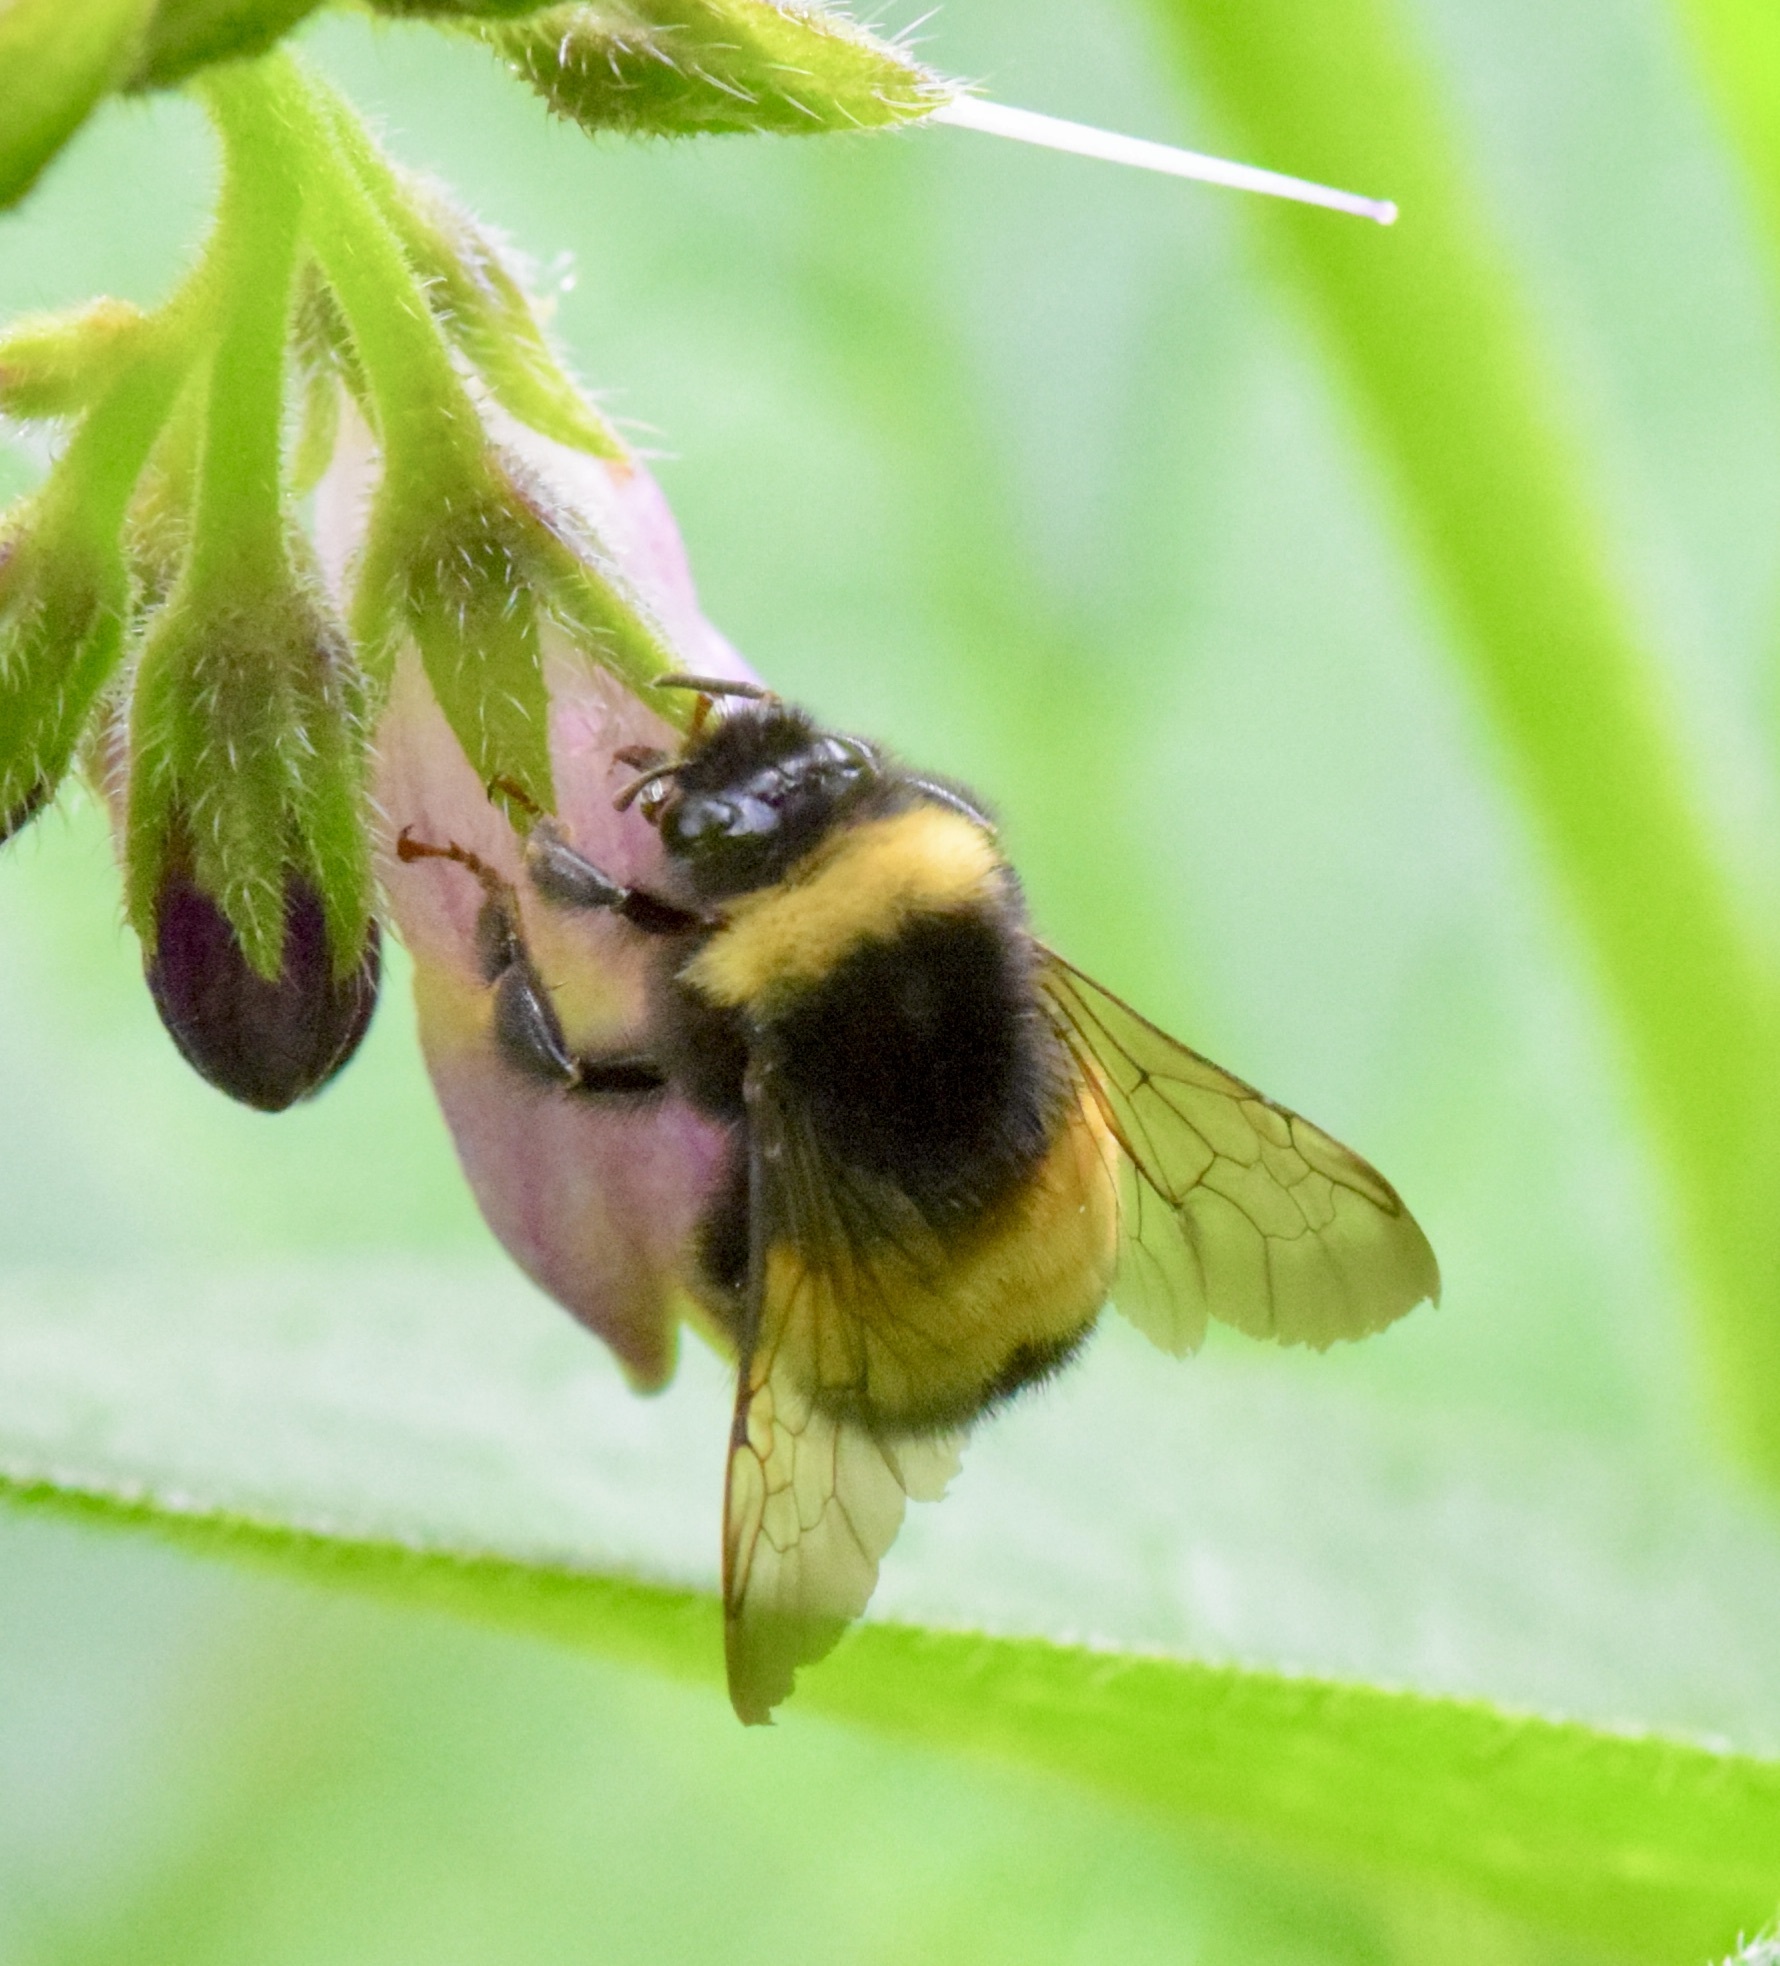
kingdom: Animalia
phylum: Arthropoda
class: Insecta
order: Hymenoptera
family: Apidae
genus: Bombus
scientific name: Bombus terricola
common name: Yellow-banded bumble bee
